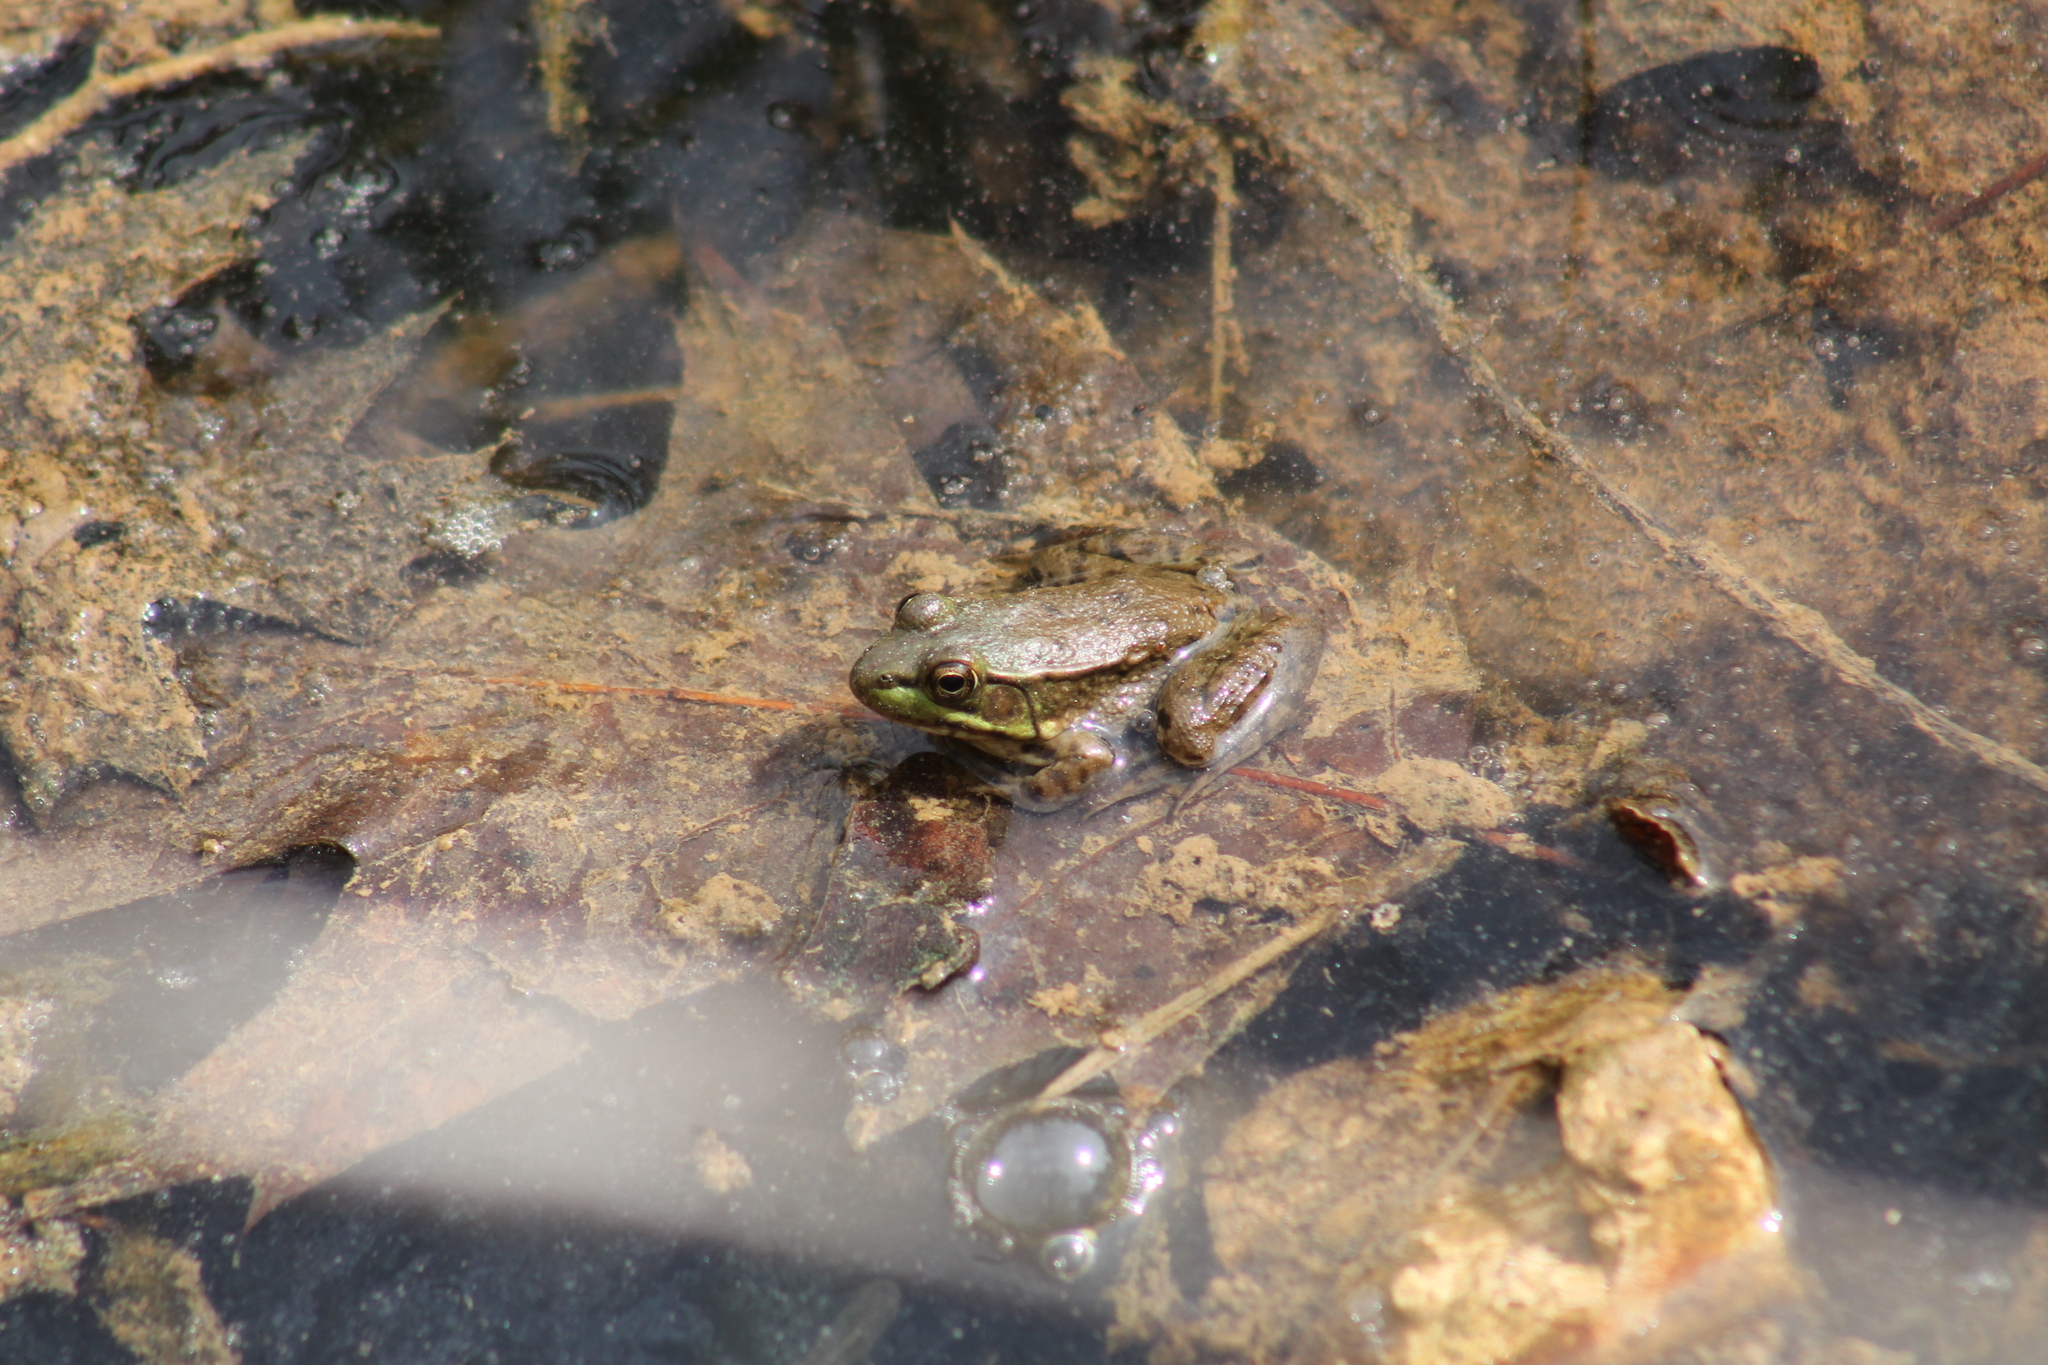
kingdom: Animalia
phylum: Chordata
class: Amphibia
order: Anura
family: Ranidae
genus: Lithobates
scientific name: Lithobates clamitans
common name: Green frog
